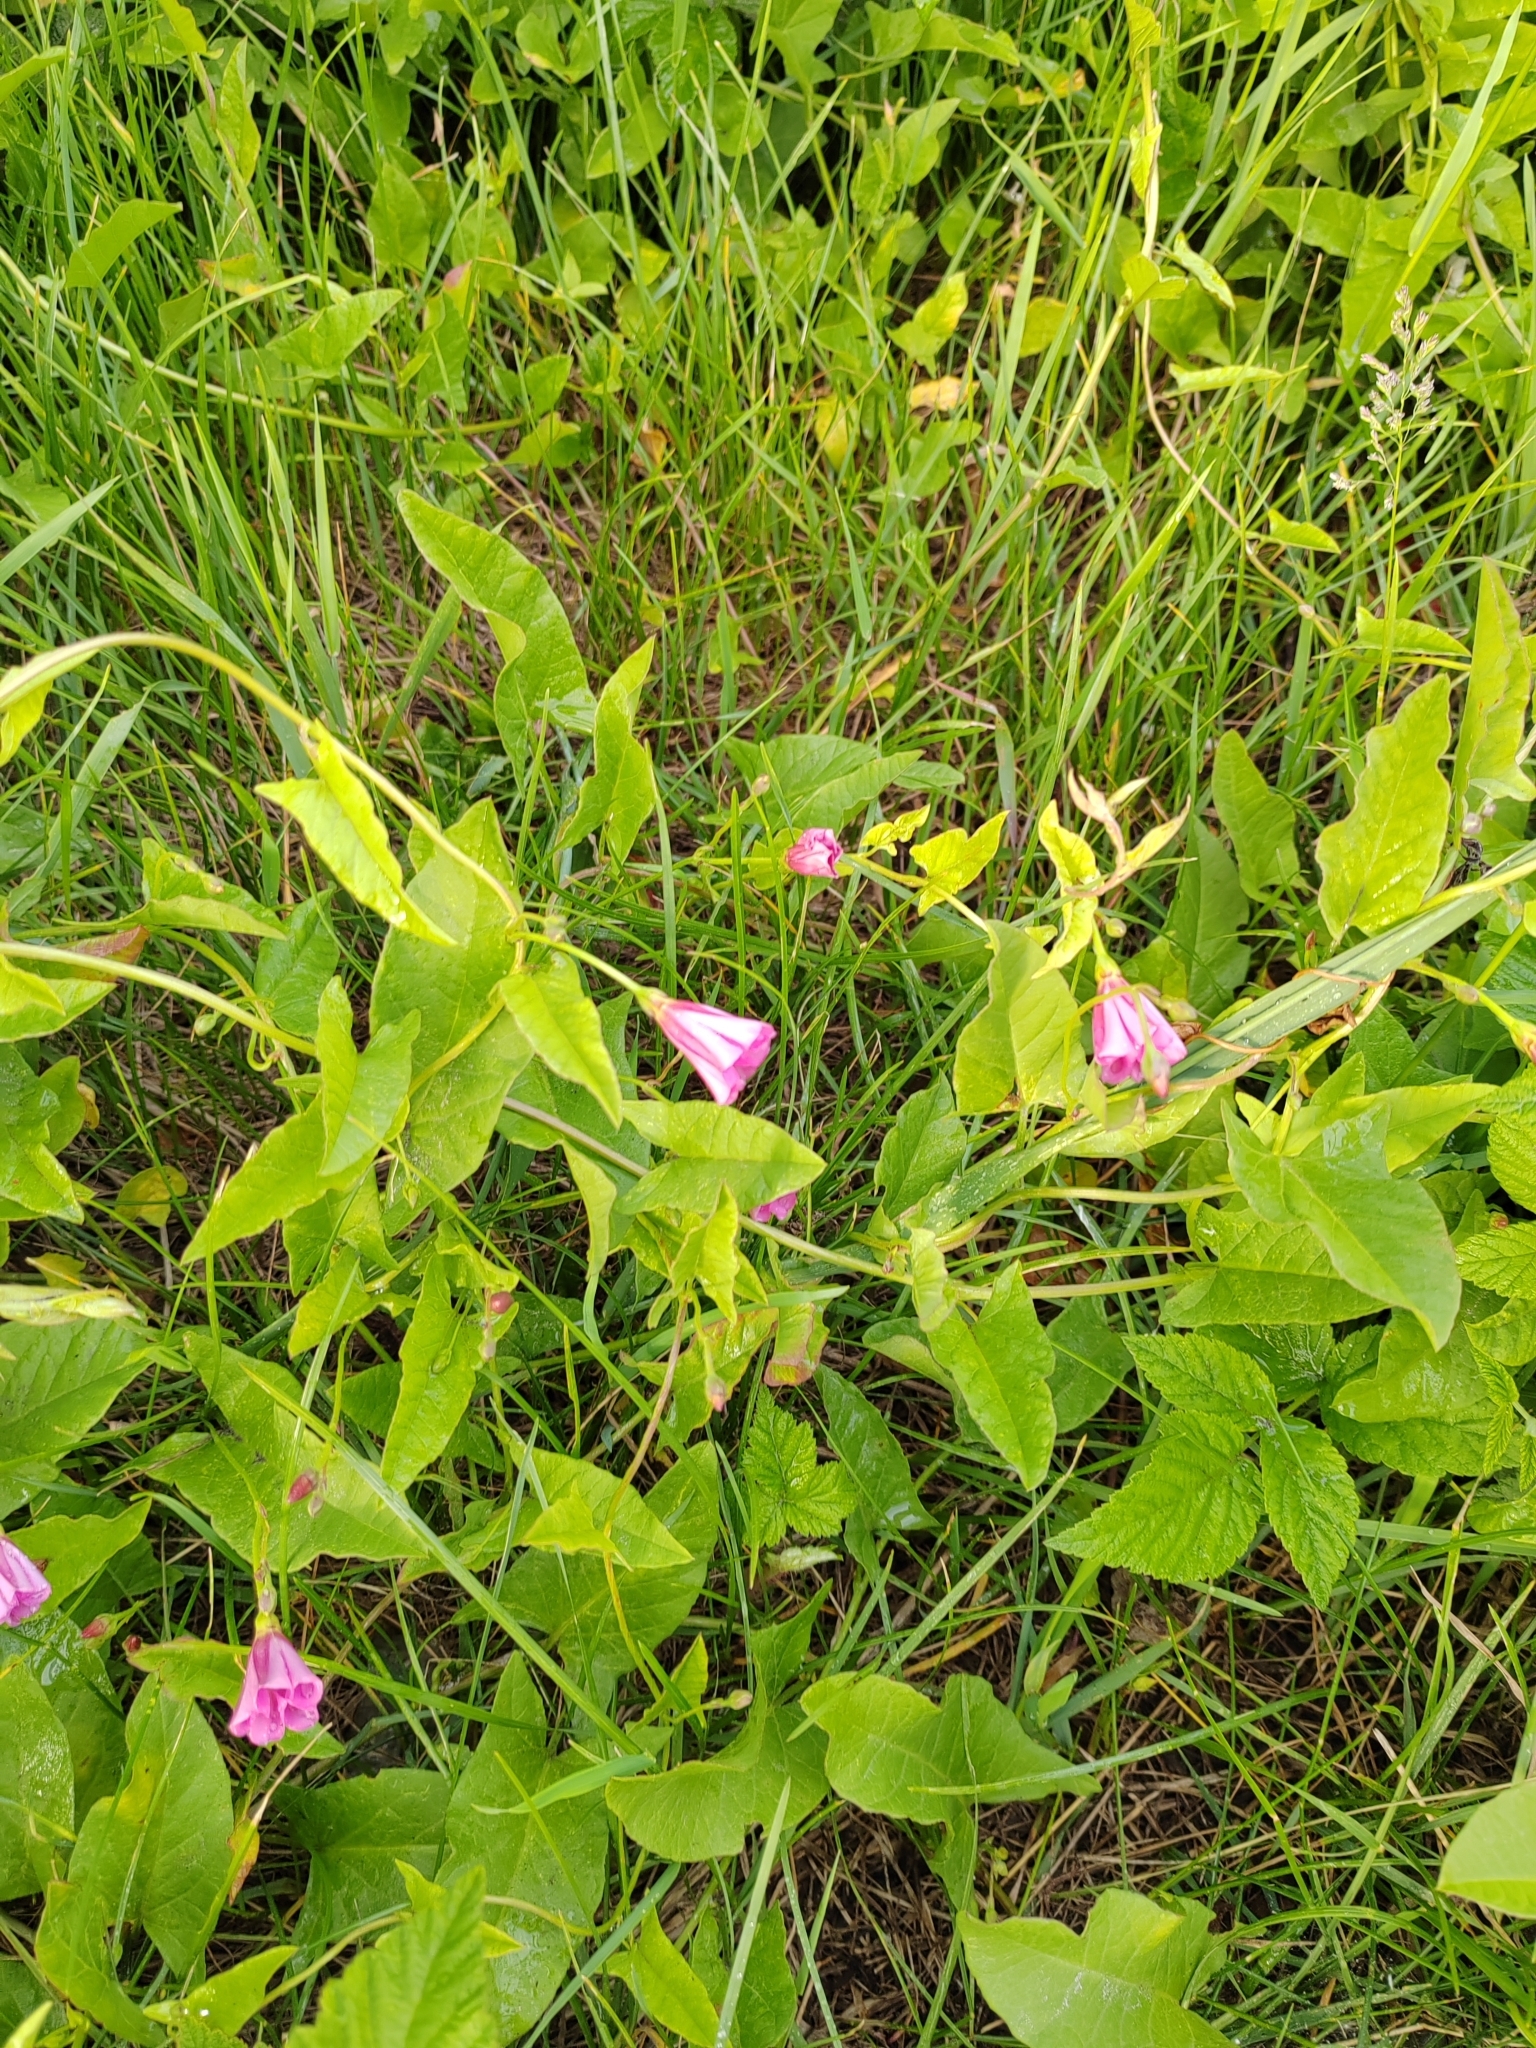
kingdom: Plantae
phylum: Tracheophyta
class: Magnoliopsida
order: Solanales
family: Convolvulaceae
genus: Convolvulus
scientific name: Convolvulus arvensis
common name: Field bindweed
